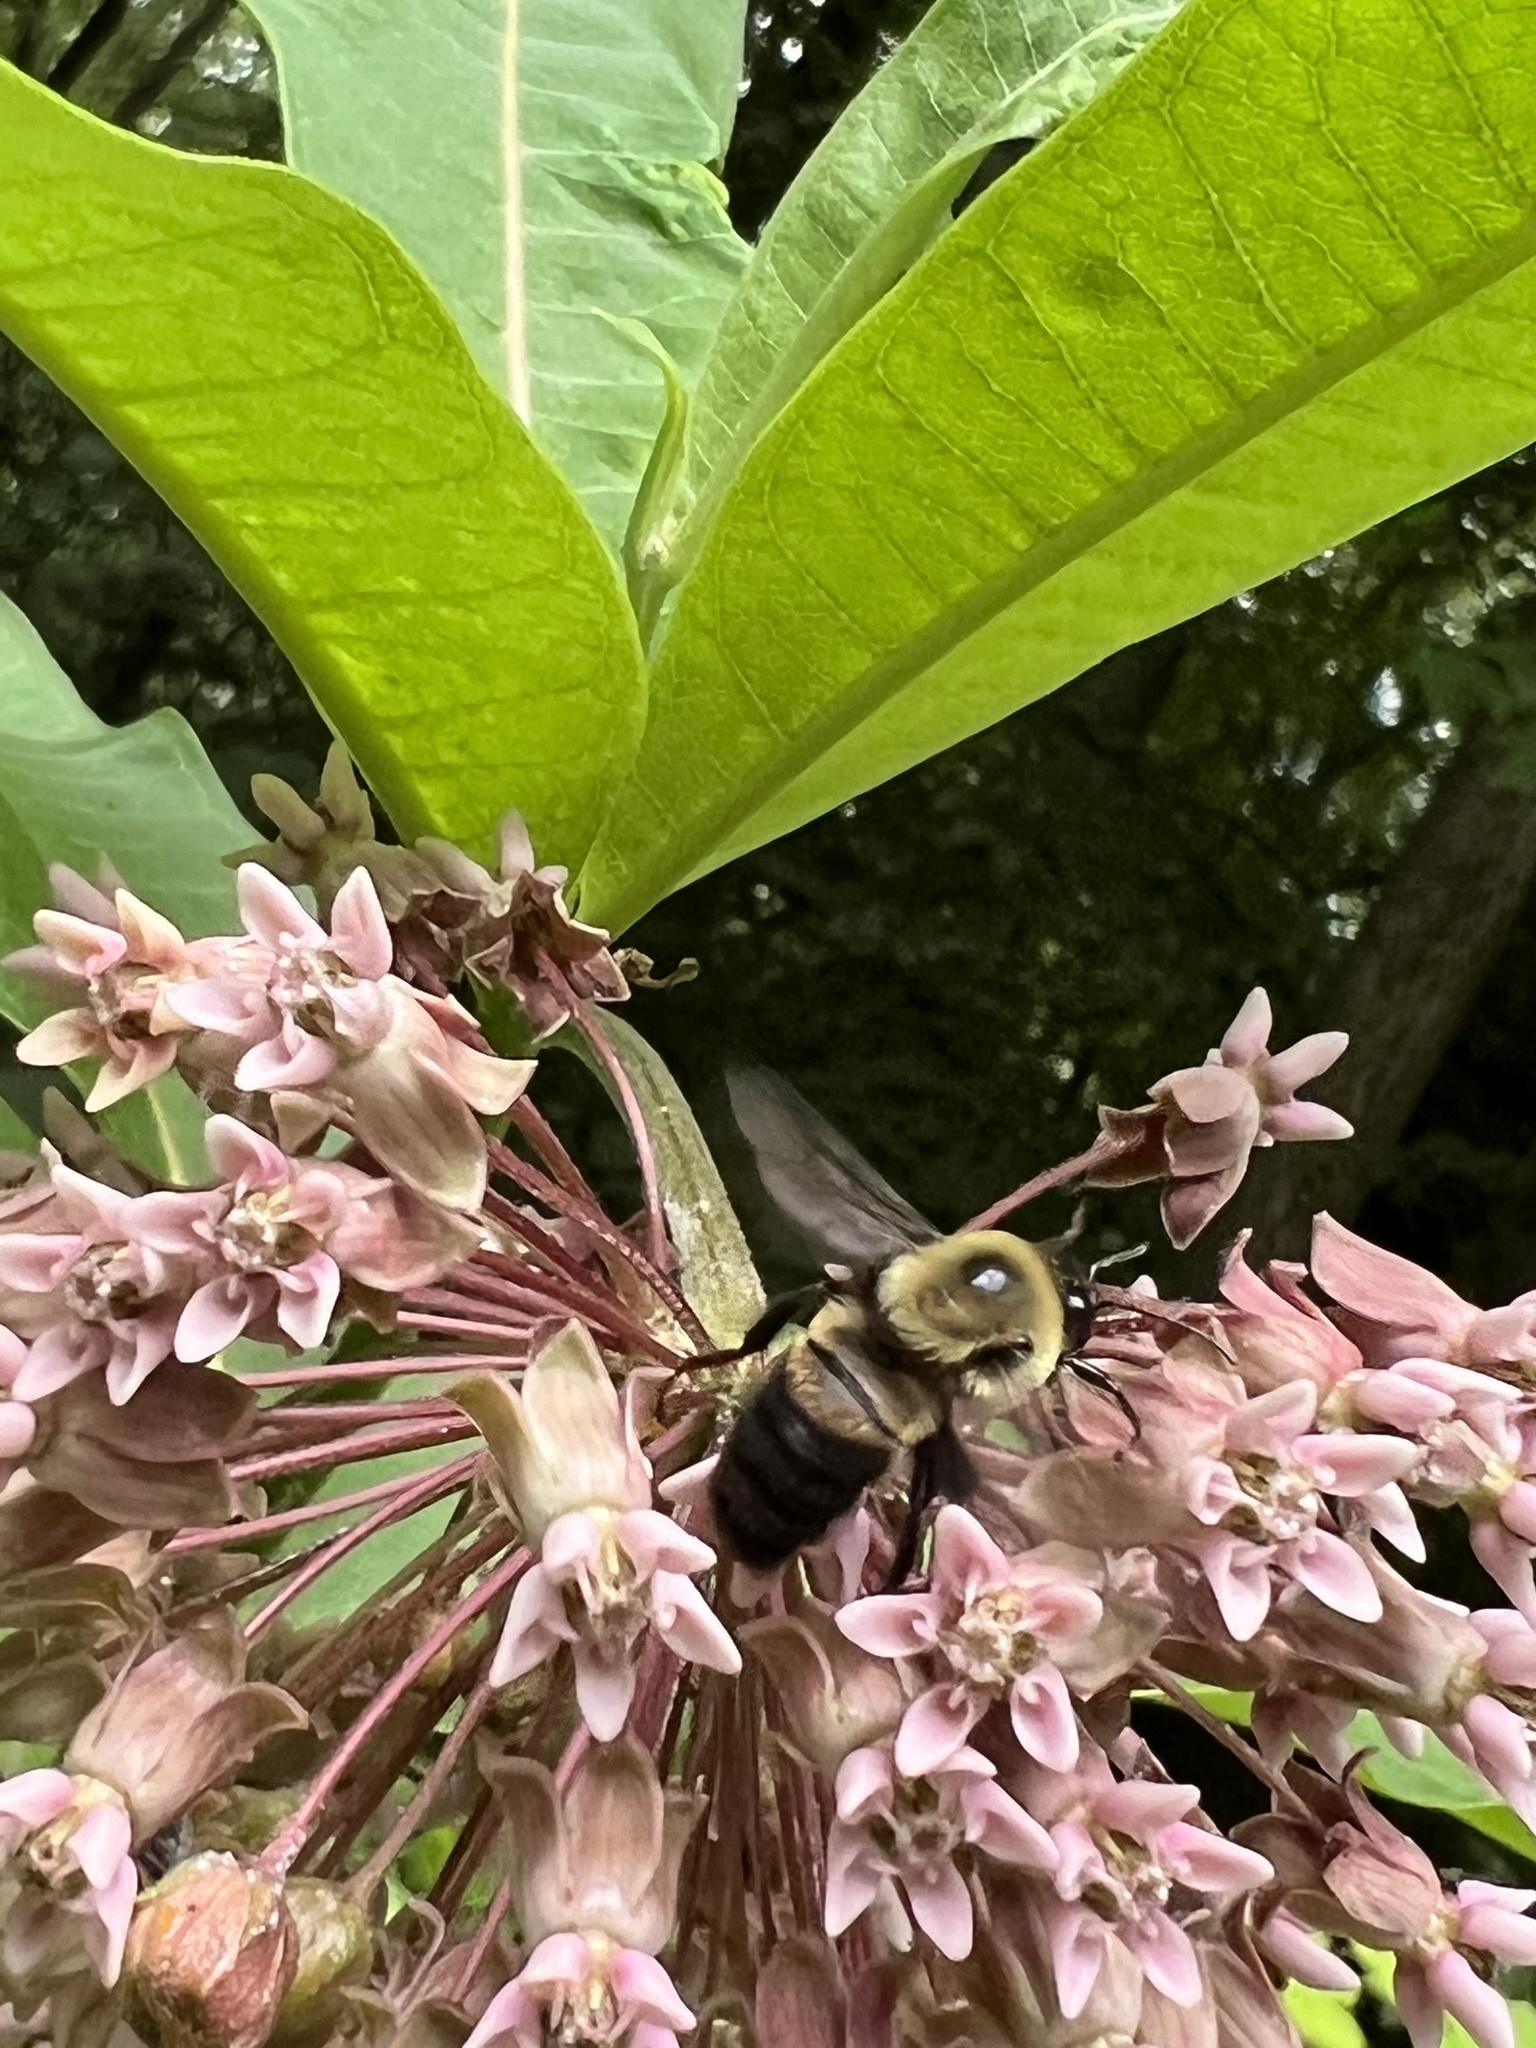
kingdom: Animalia
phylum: Arthropoda
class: Insecta
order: Hymenoptera
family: Apidae
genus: Bombus
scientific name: Bombus griseocollis
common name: Brown-belted bumble bee
